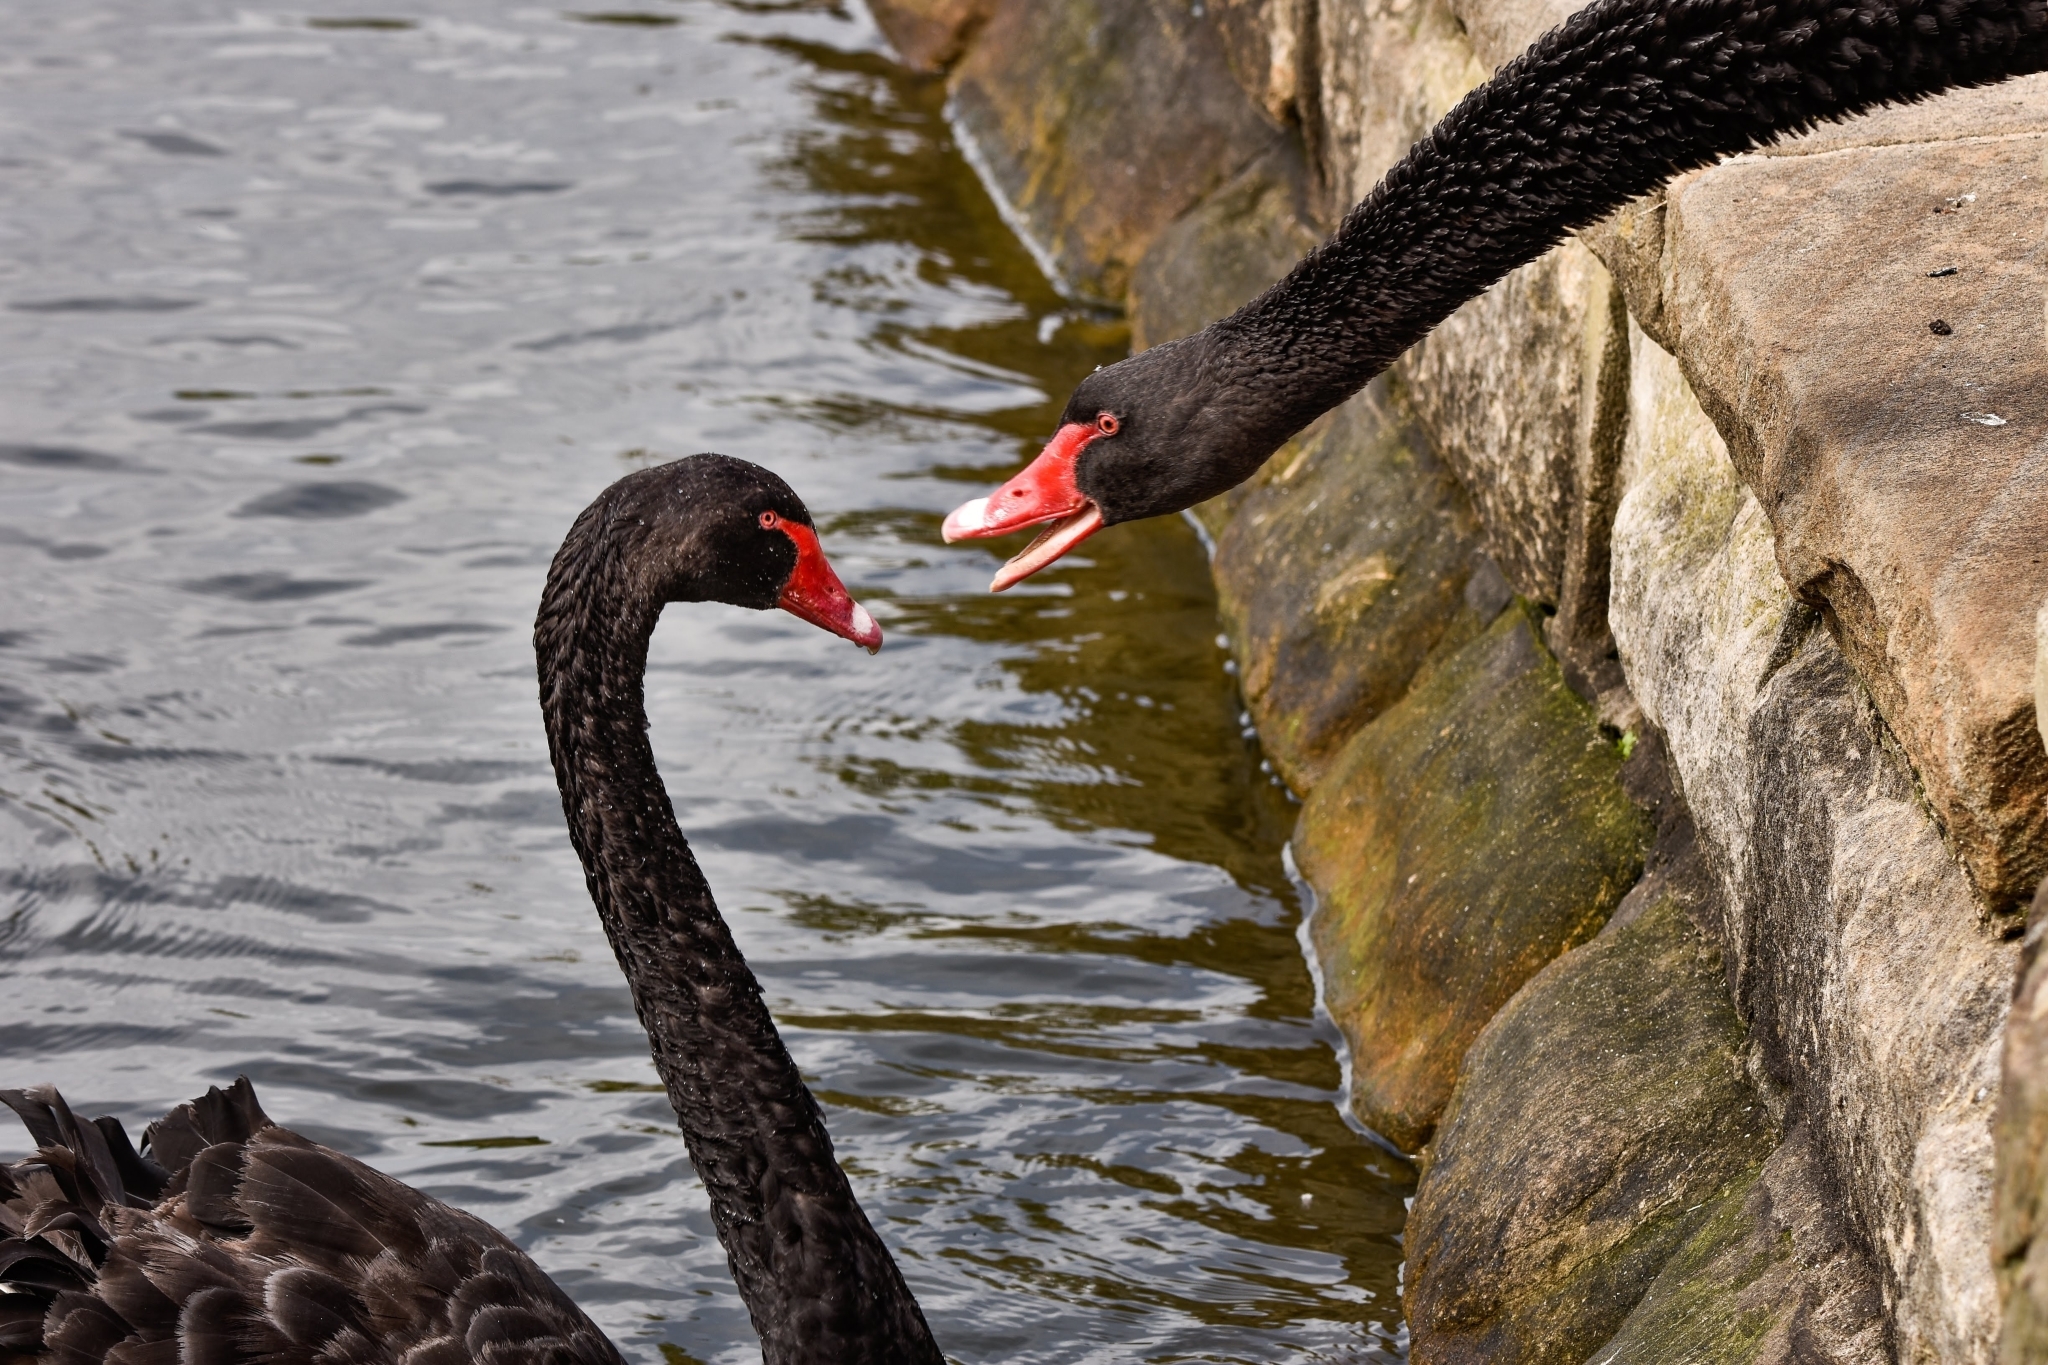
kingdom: Animalia
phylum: Chordata
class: Aves
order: Anseriformes
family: Anatidae
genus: Cygnus
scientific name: Cygnus atratus
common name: Black swan
